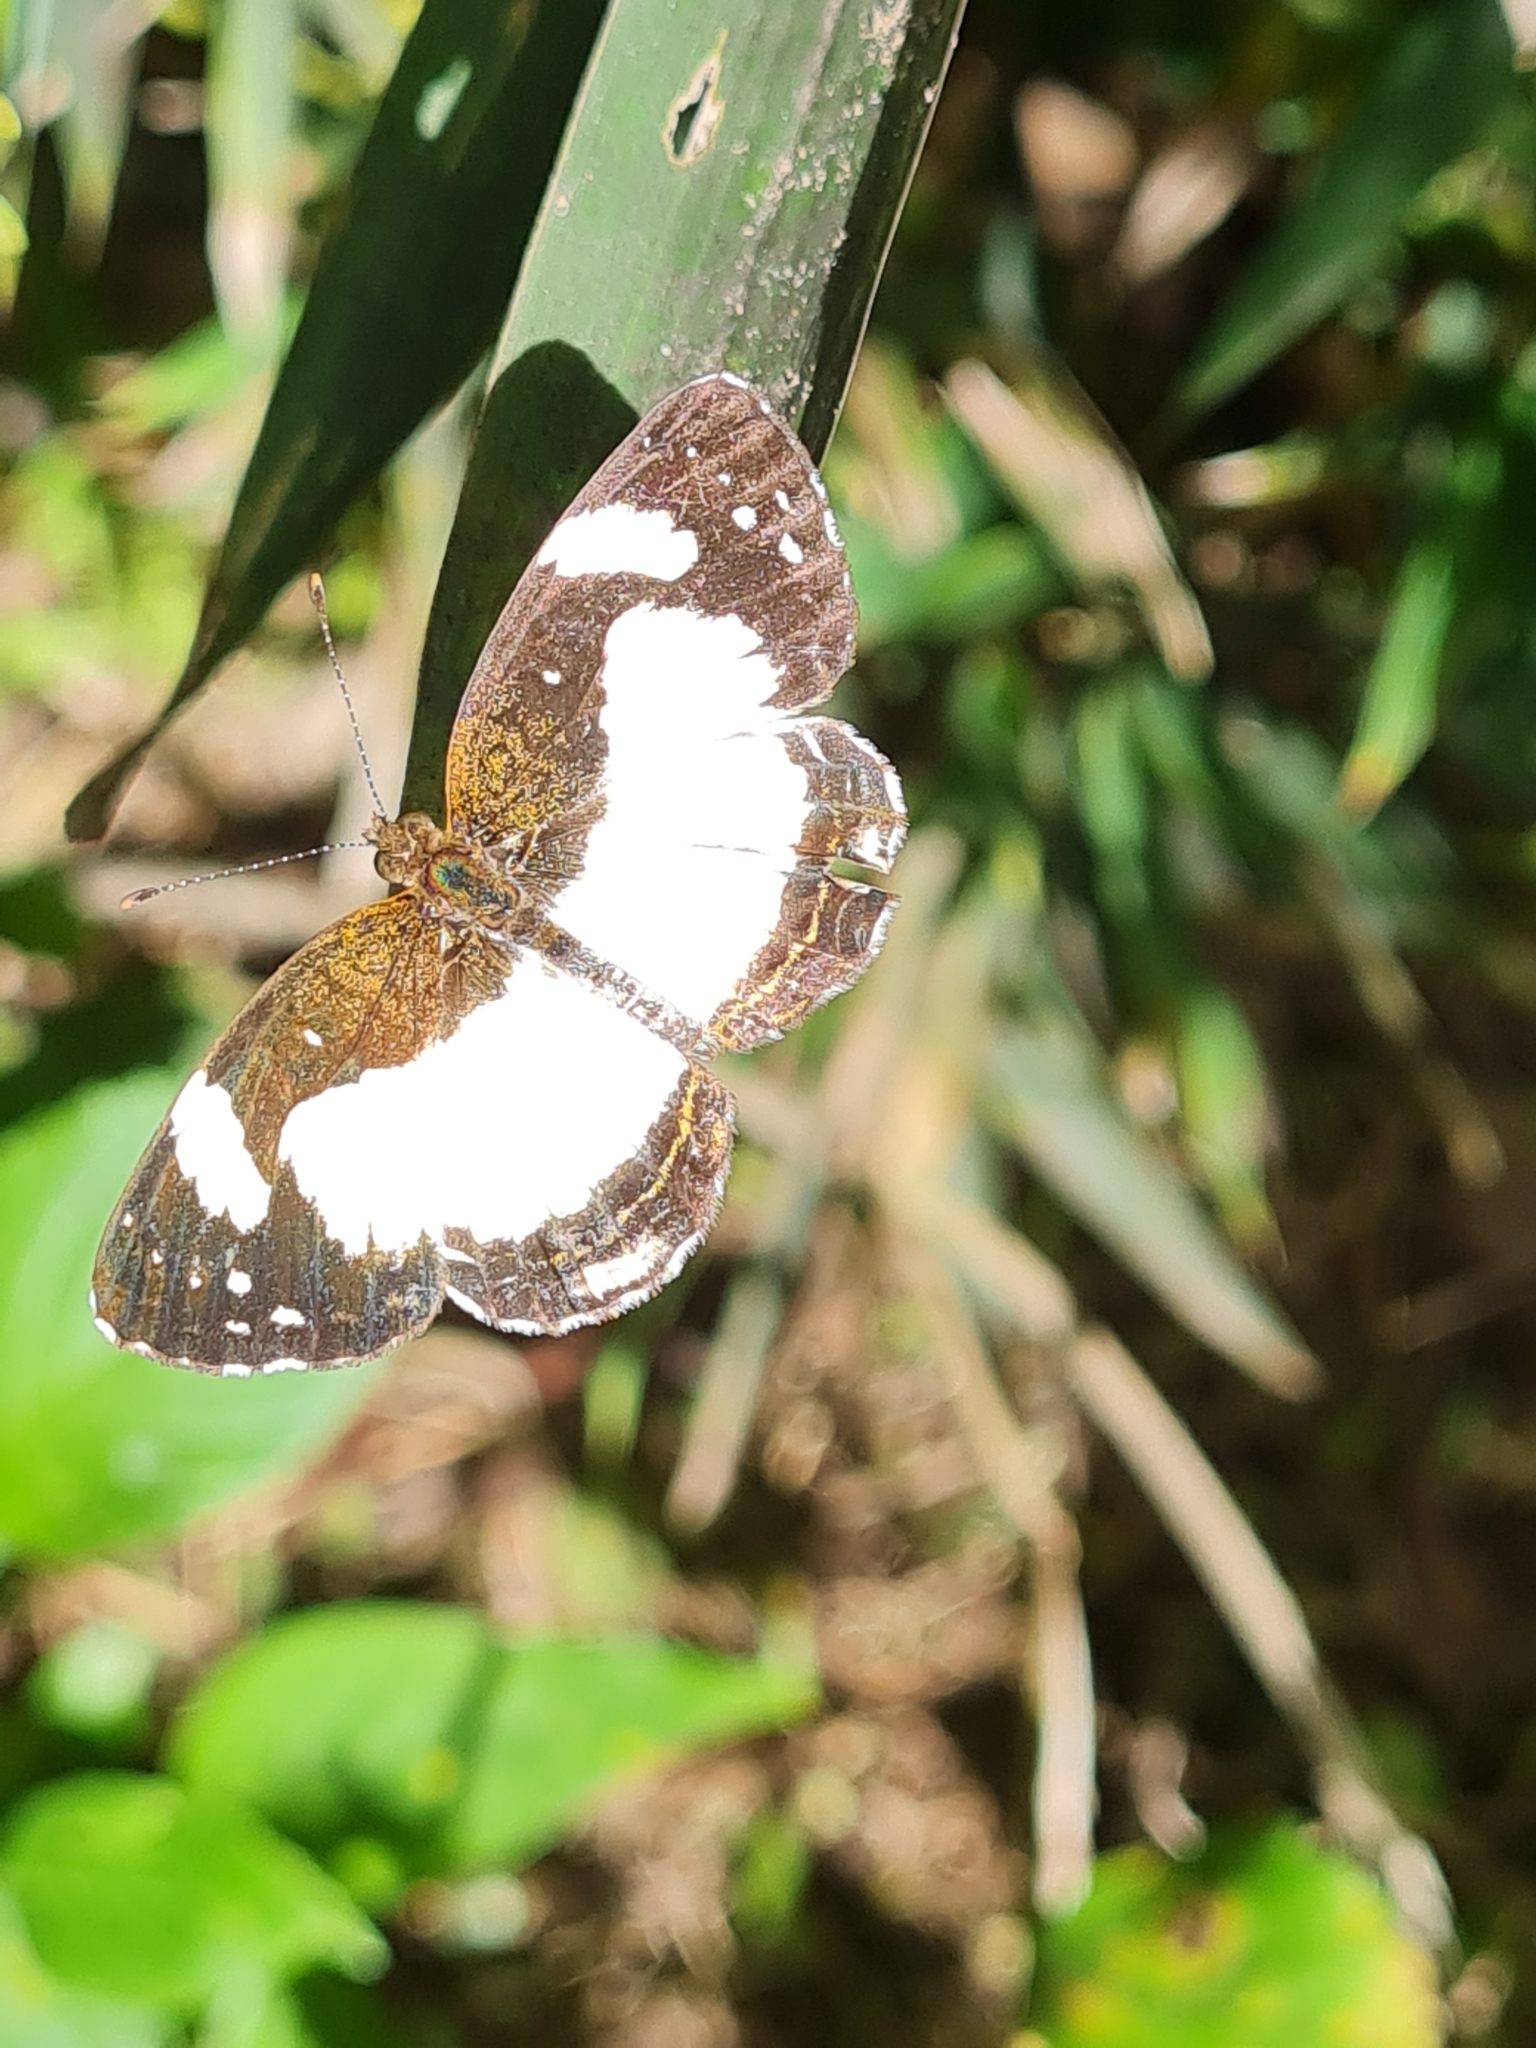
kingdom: Animalia
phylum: Arthropoda
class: Insecta
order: Lepidoptera
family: Nymphalidae
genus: Janatella
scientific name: Janatella leucodesma
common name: Whitened crescent
